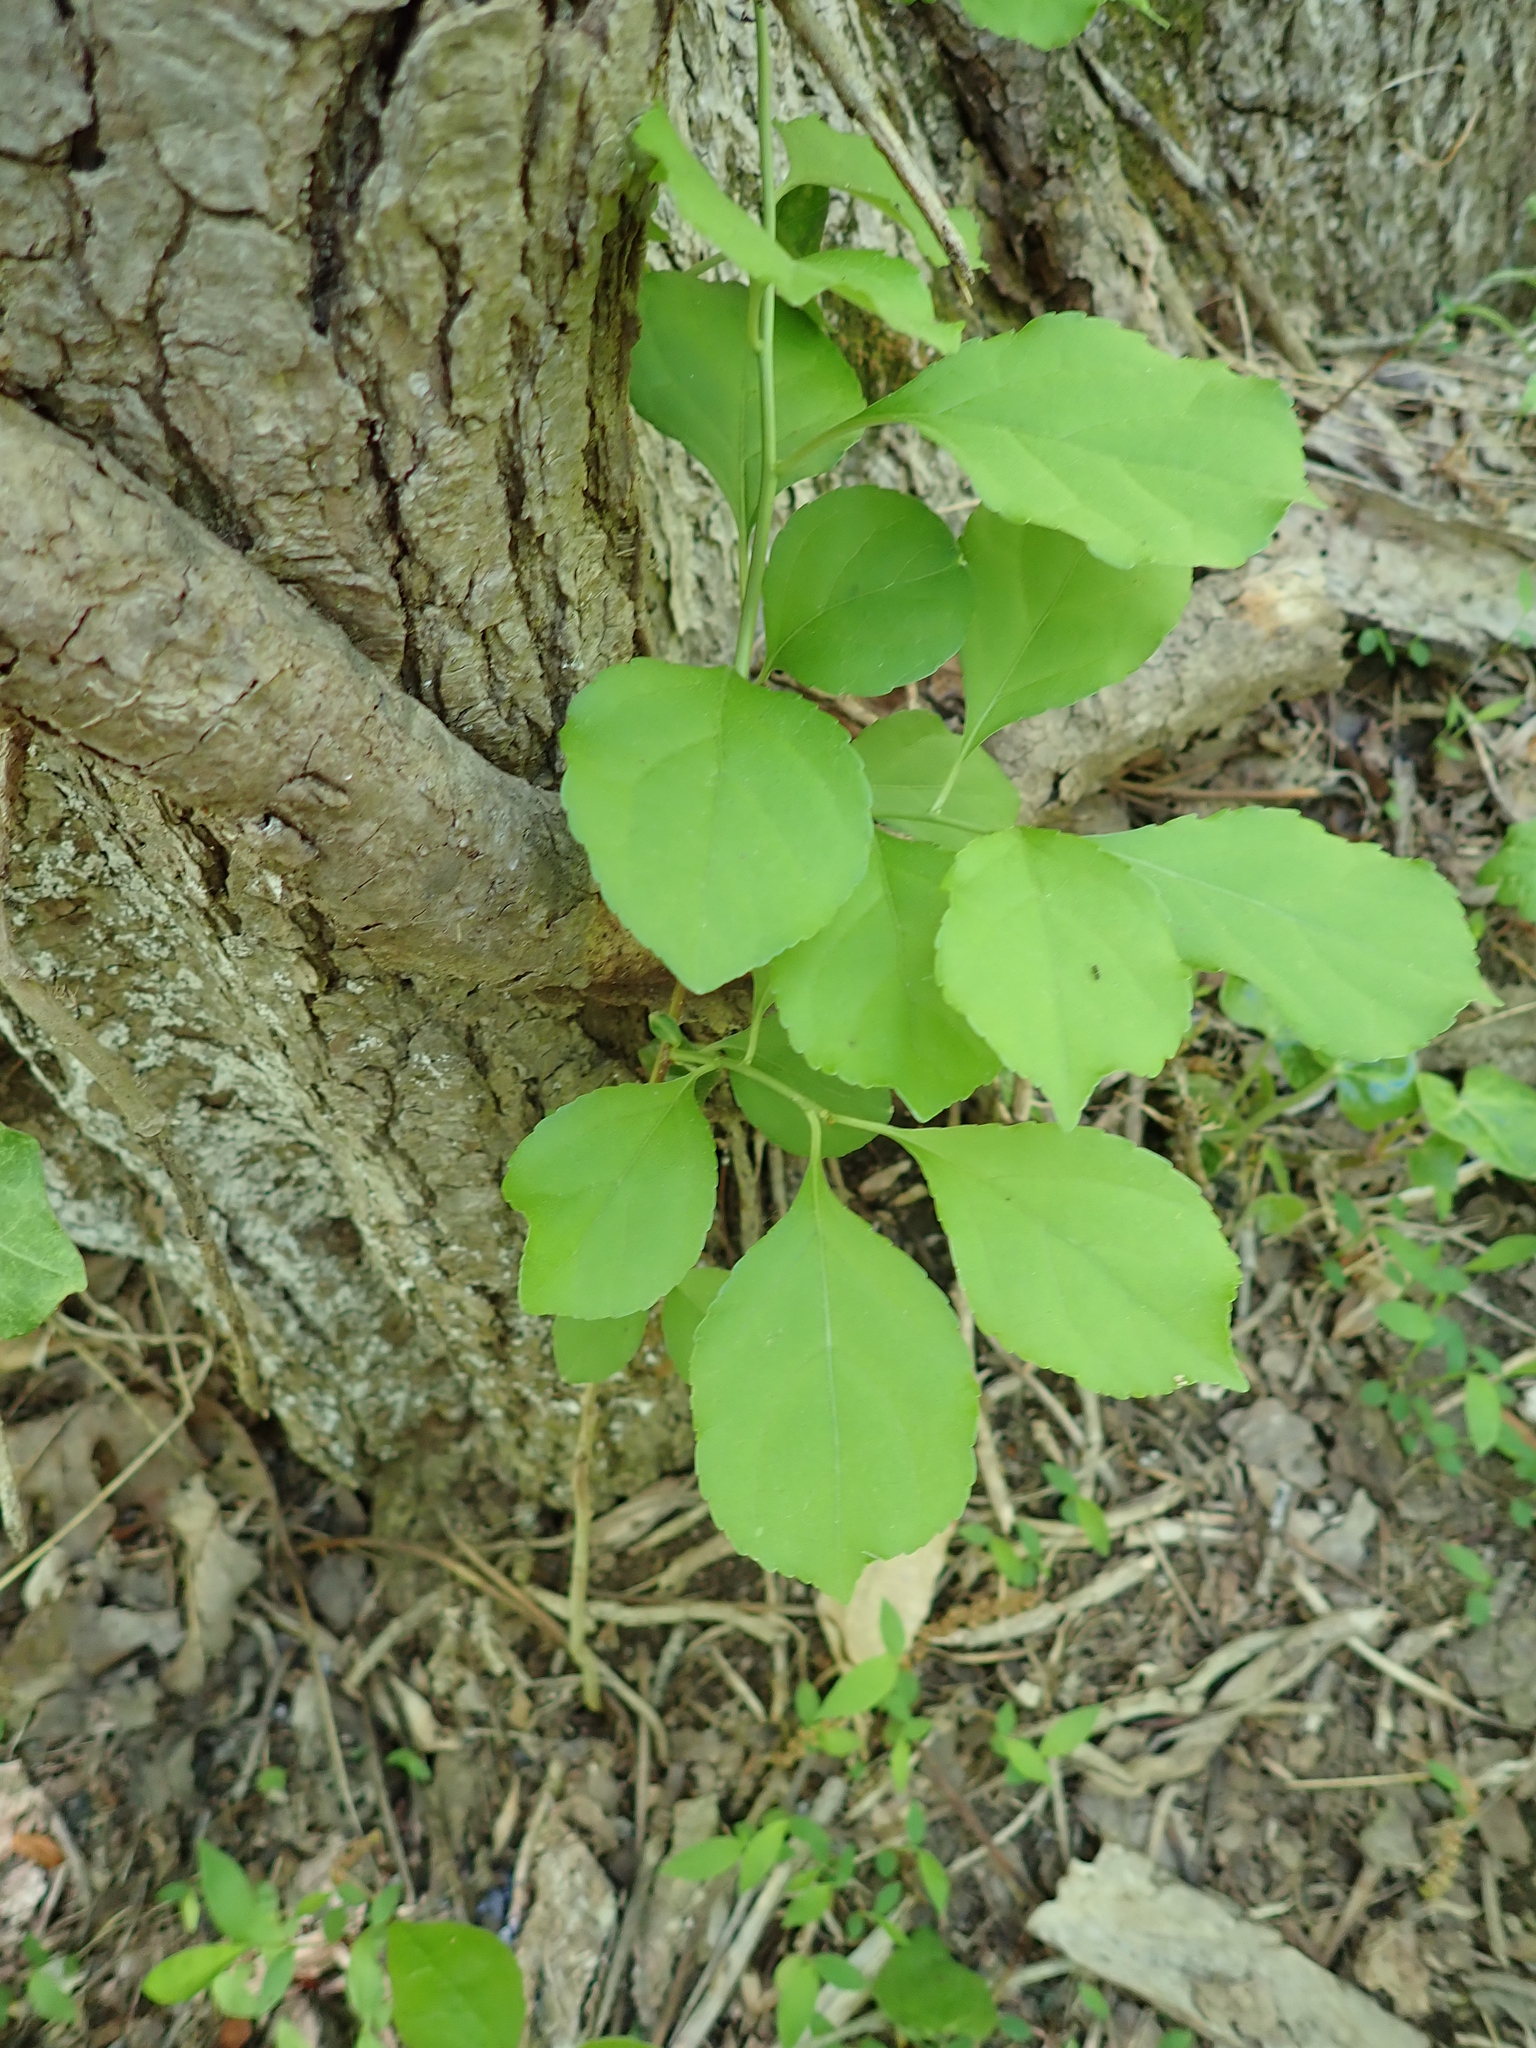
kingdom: Plantae
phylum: Tracheophyta
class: Magnoliopsida
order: Celastrales
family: Celastraceae
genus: Celastrus
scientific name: Celastrus orbiculatus
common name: Oriental bittersweet
